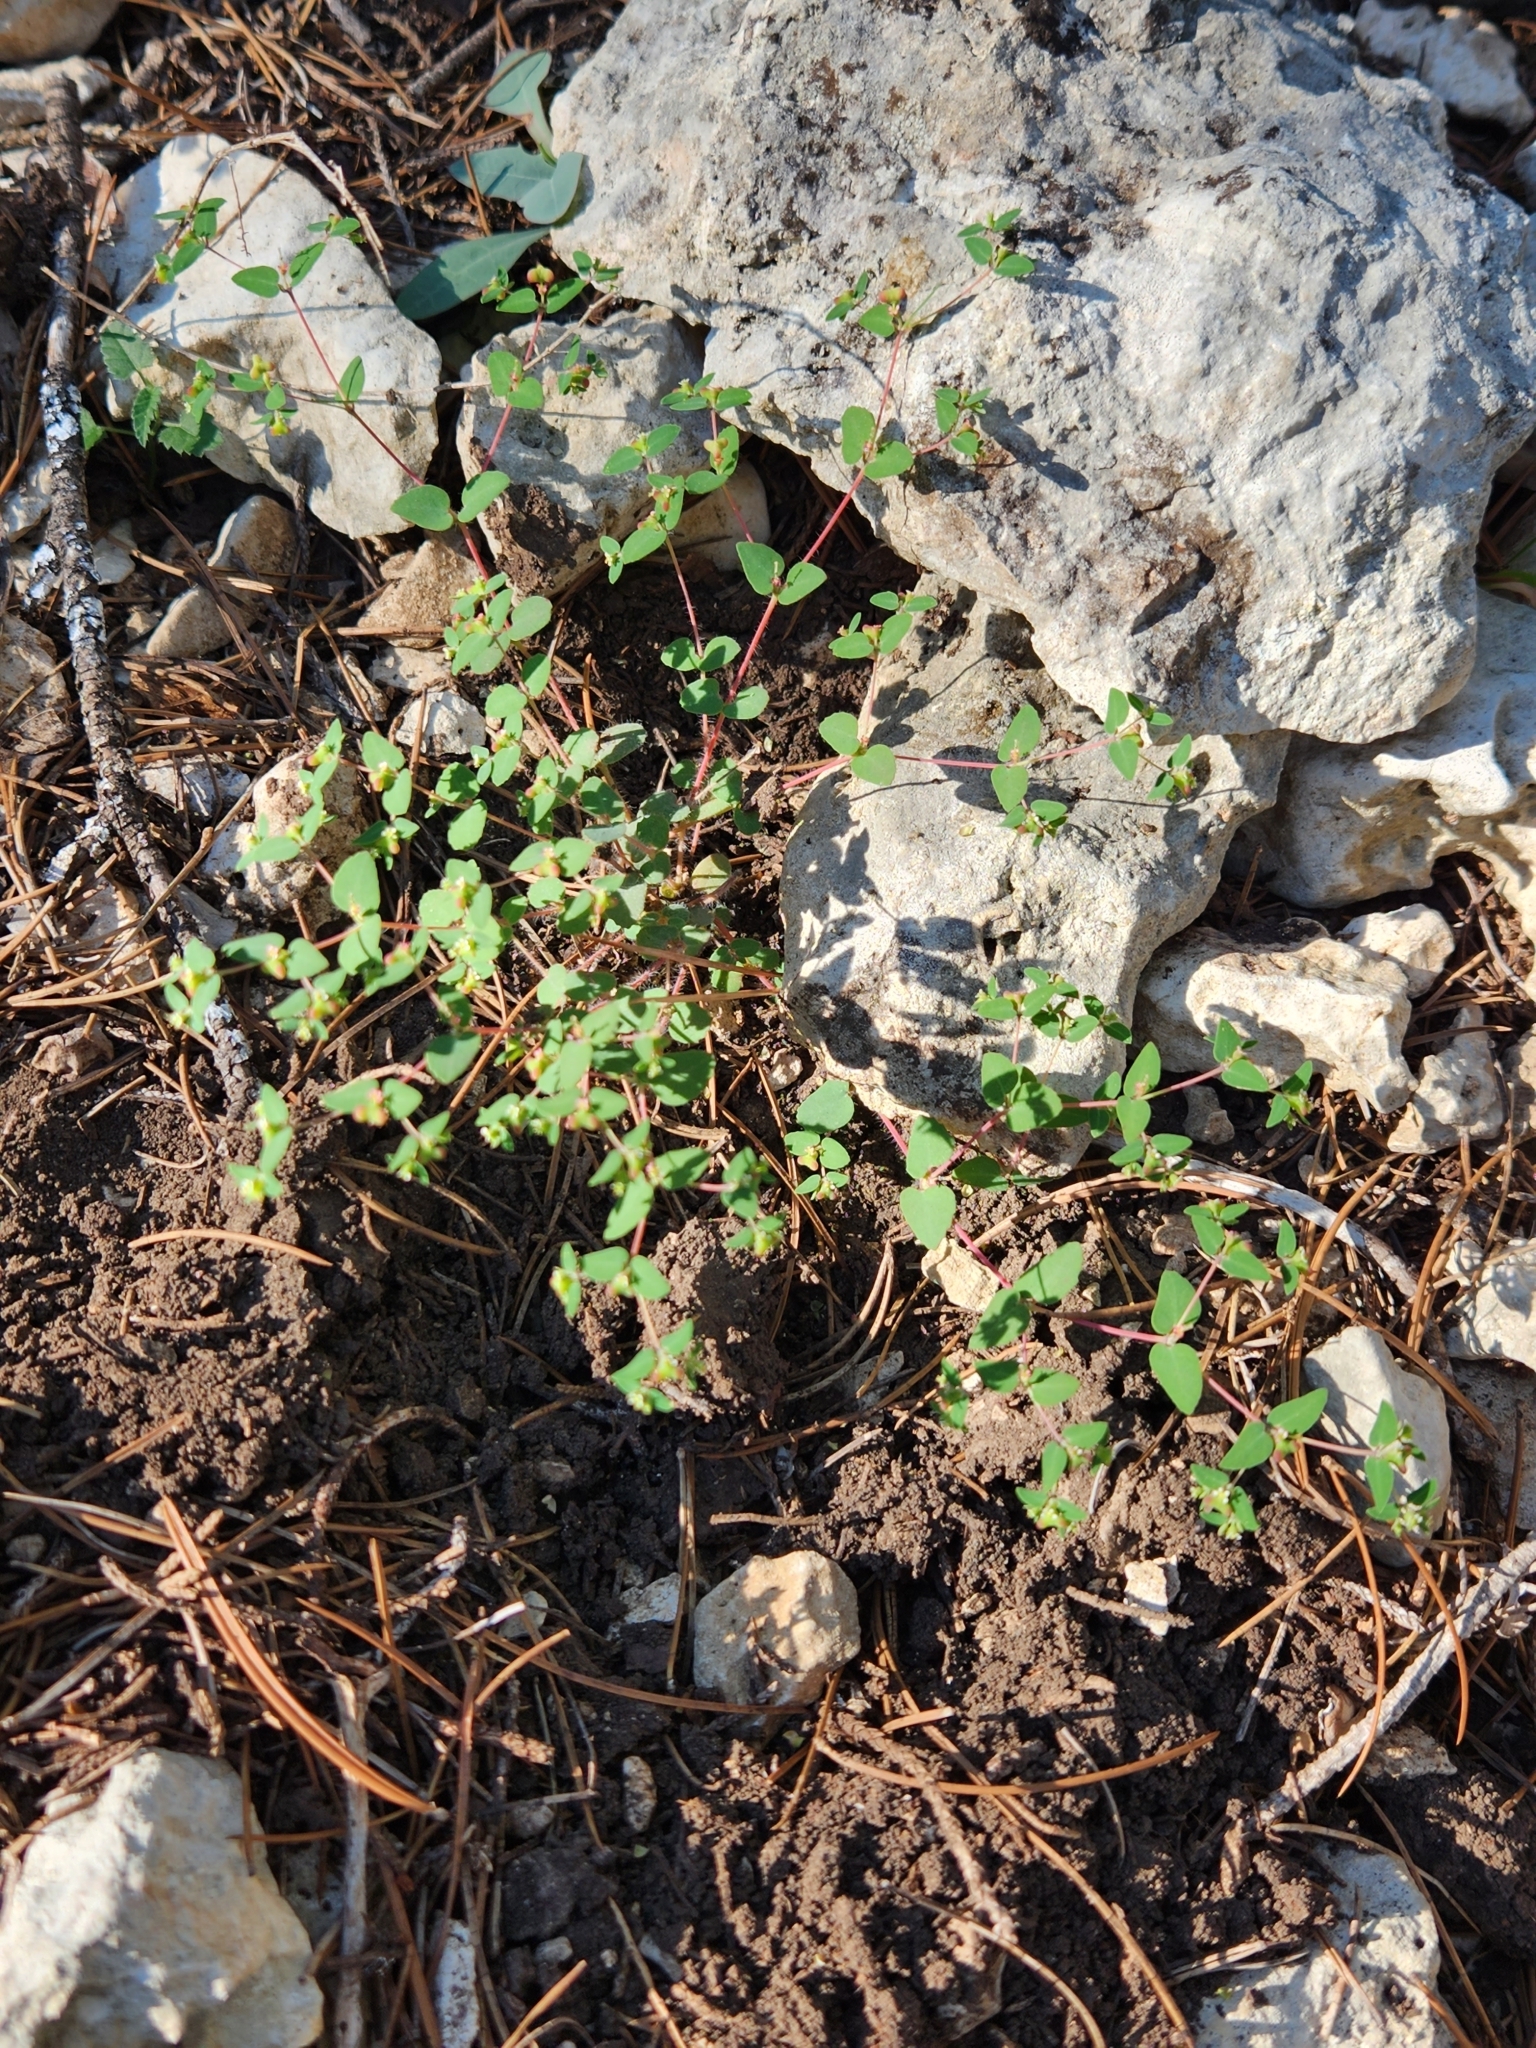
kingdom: Plantae
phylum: Tracheophyta
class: Magnoliopsida
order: Malpighiales
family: Euphorbiaceae
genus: Euphorbia
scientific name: Euphorbia villifera
